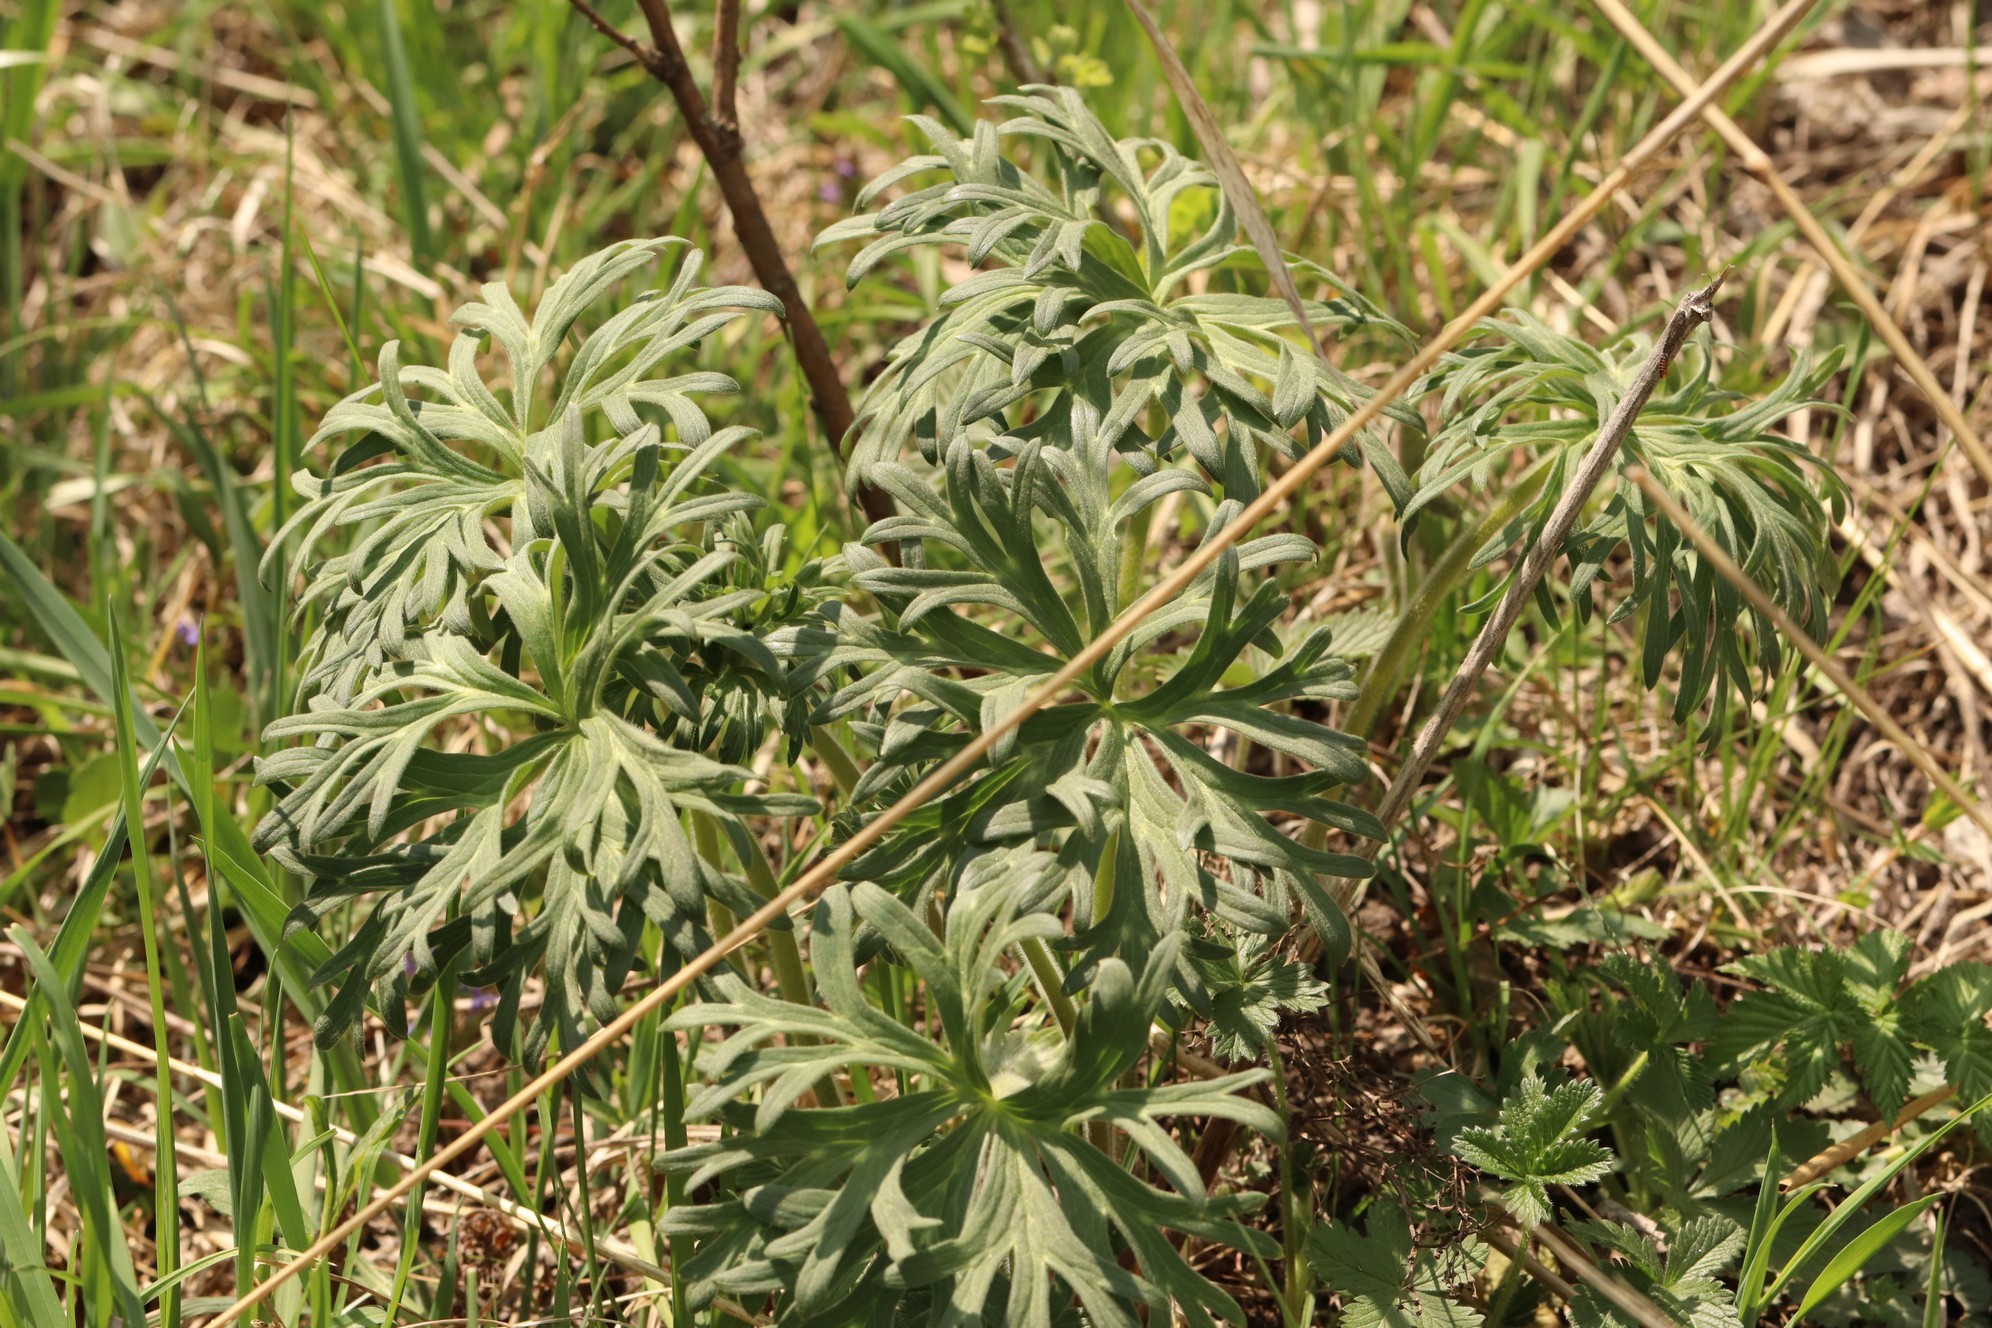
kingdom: Plantae
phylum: Tracheophyta
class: Magnoliopsida
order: Ranunculales
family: Ranunculaceae
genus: Aconitum
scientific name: Aconitum barbatum
